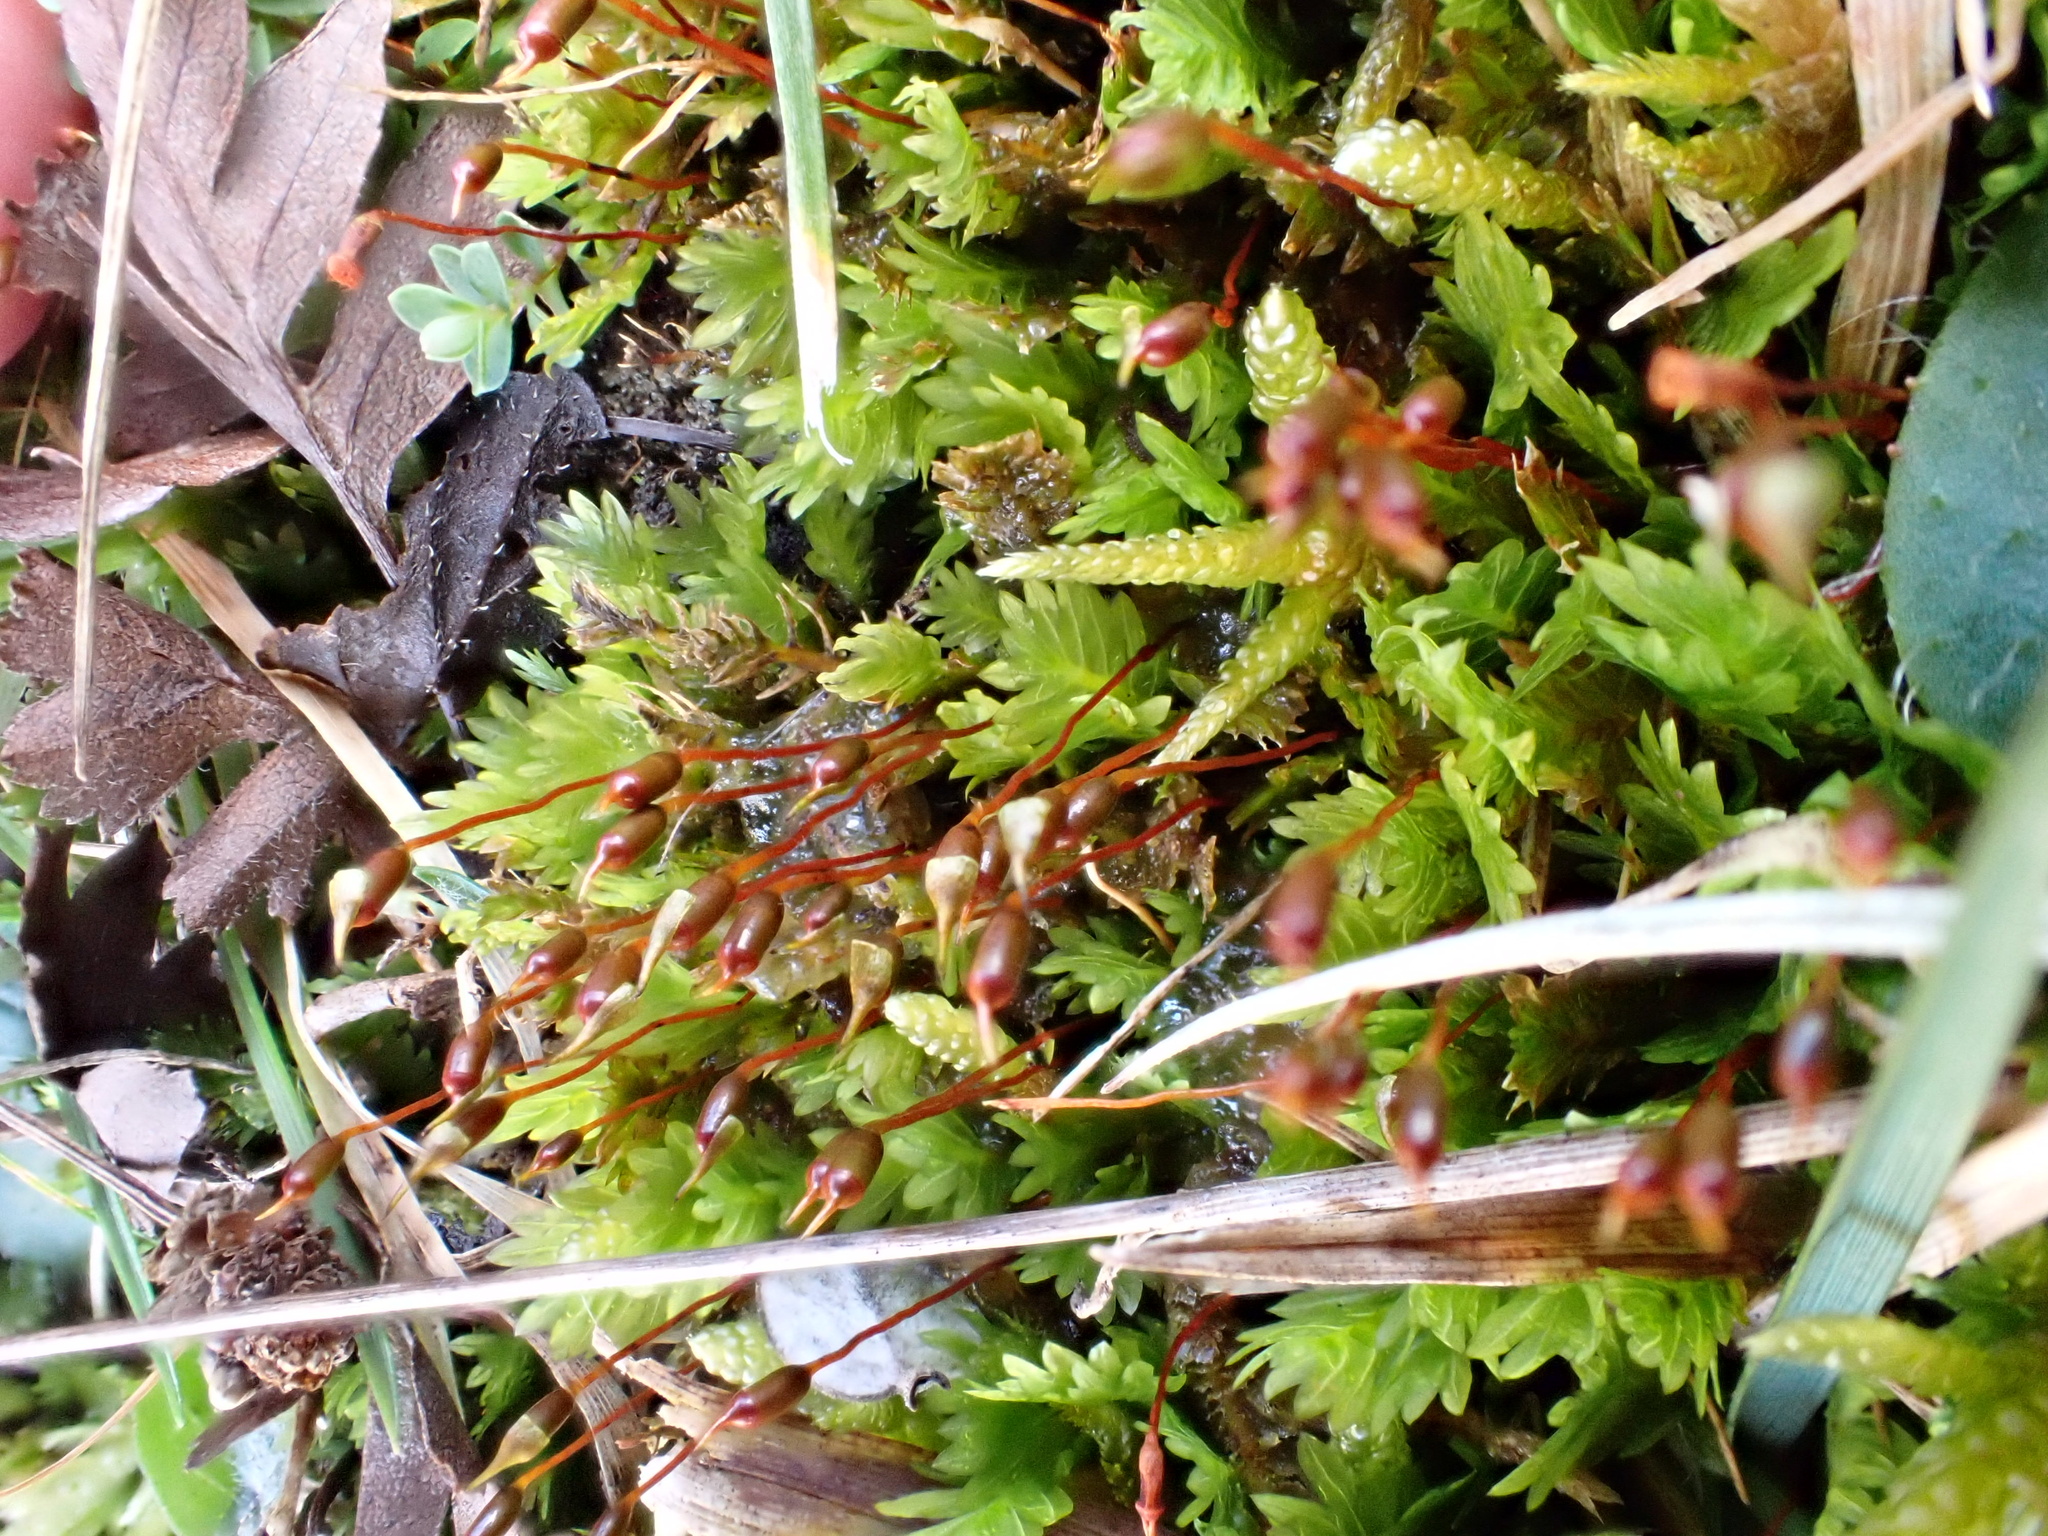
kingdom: Plantae
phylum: Bryophyta
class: Bryopsida
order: Dicranales
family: Fissidentaceae
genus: Fissidens
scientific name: Fissidens dubius
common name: Rock pocket moss
